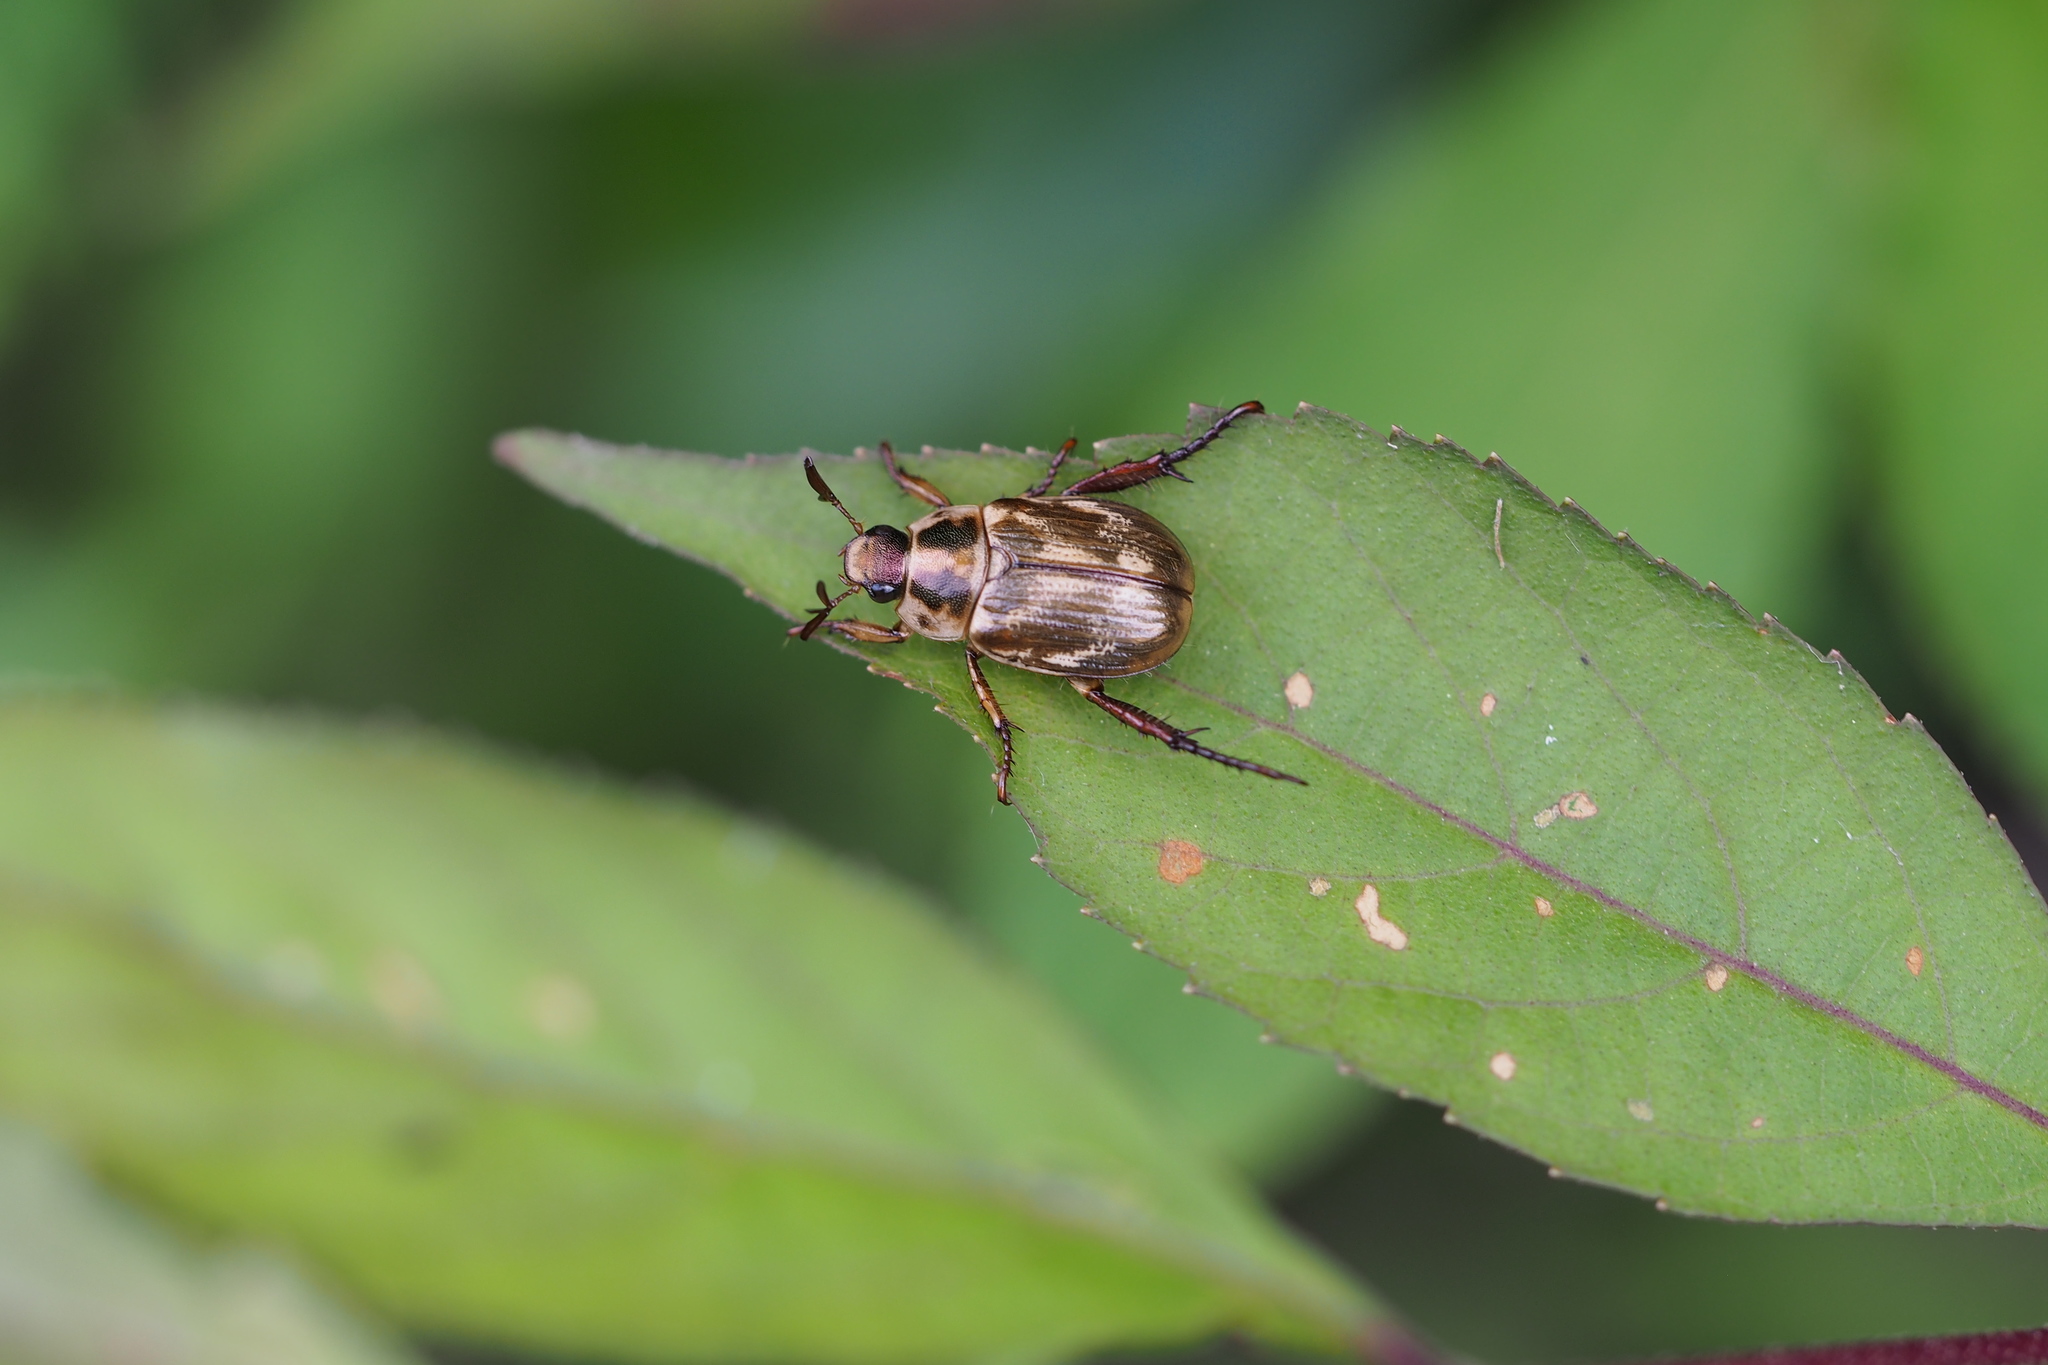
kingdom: Animalia
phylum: Arthropoda
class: Insecta
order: Coleoptera
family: Scarabaeidae
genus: Exomala
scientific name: Exomala orientalis
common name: Oriental beetle
